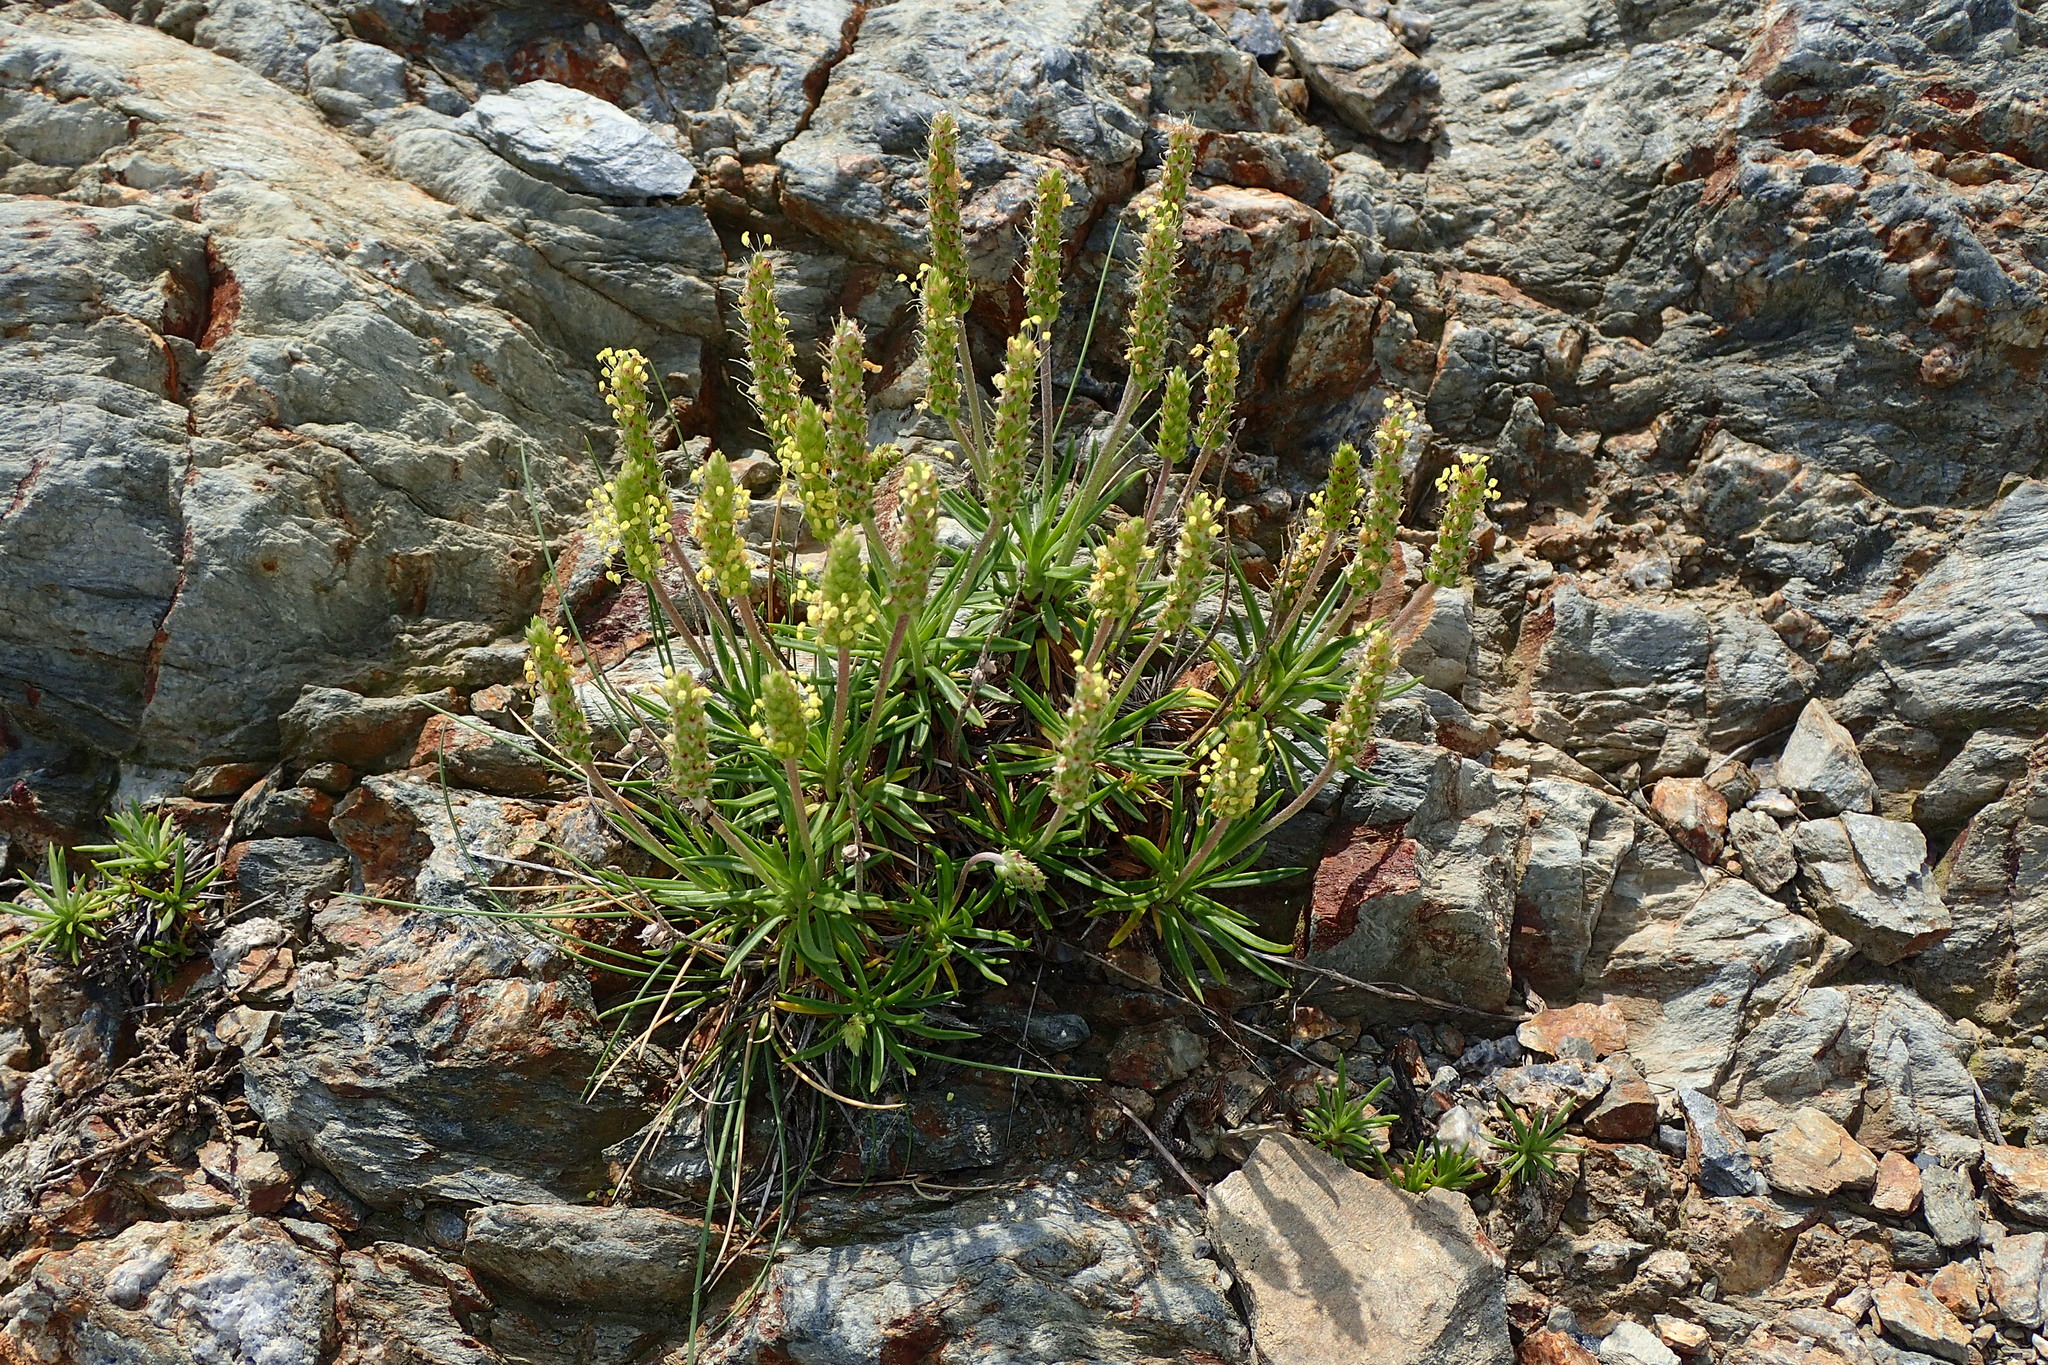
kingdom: Plantae
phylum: Tracheophyta
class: Magnoliopsida
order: Lamiales
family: Plantaginaceae
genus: Plantago
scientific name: Plantago subulata
